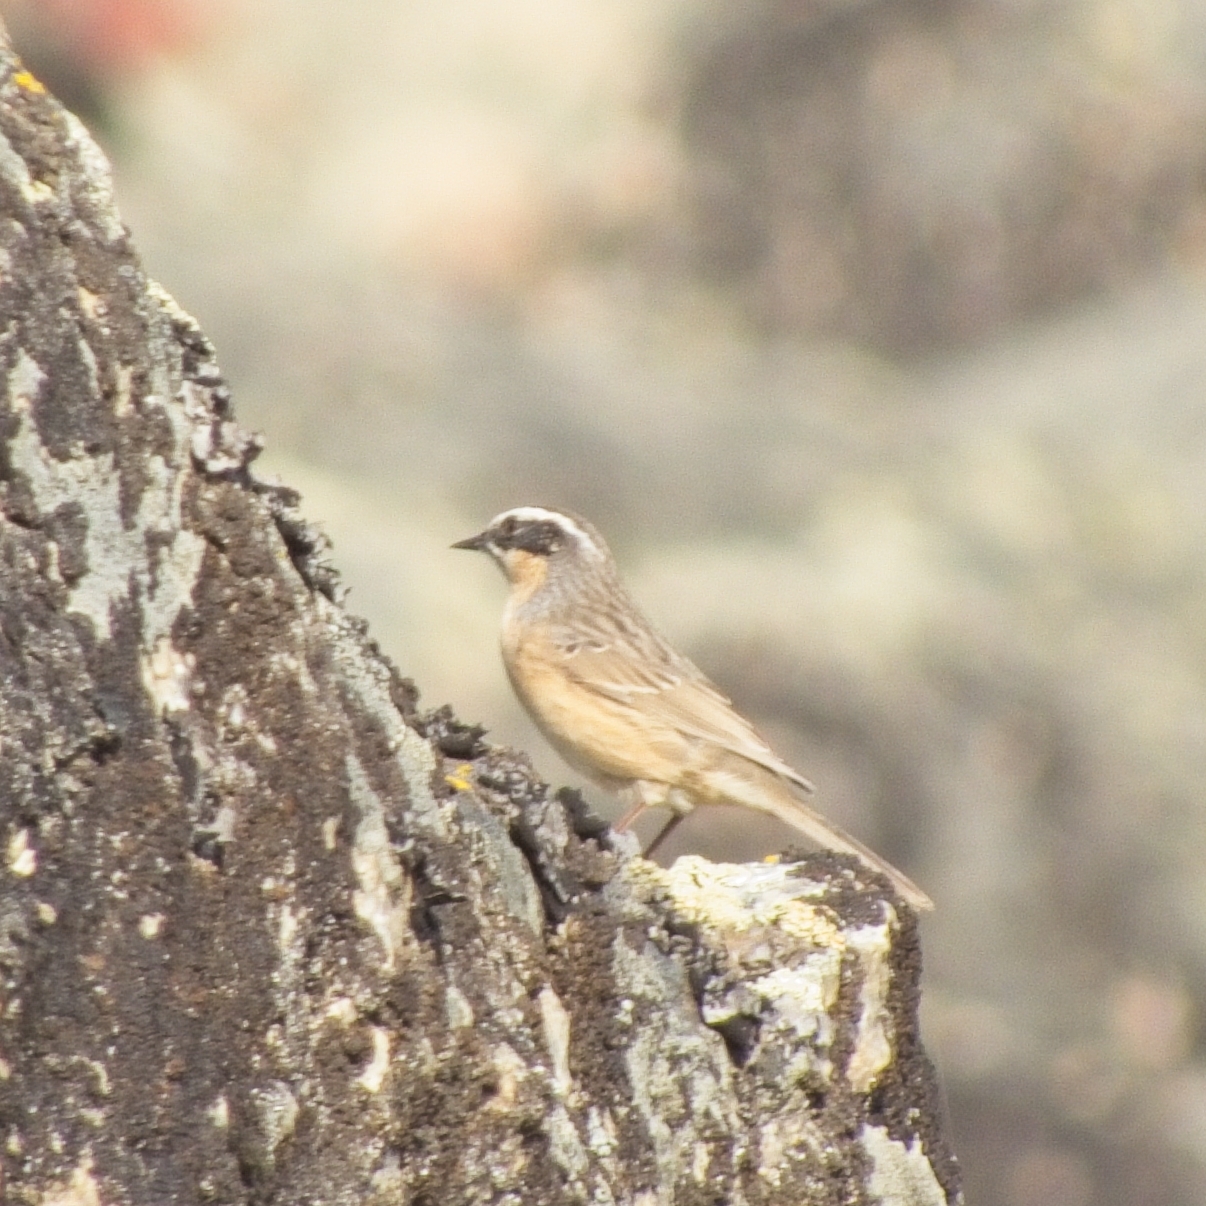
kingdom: Animalia
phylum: Chordata
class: Aves
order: Passeriformes
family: Prunellidae
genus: Prunella
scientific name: Prunella fulvescens
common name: Brown accentor
